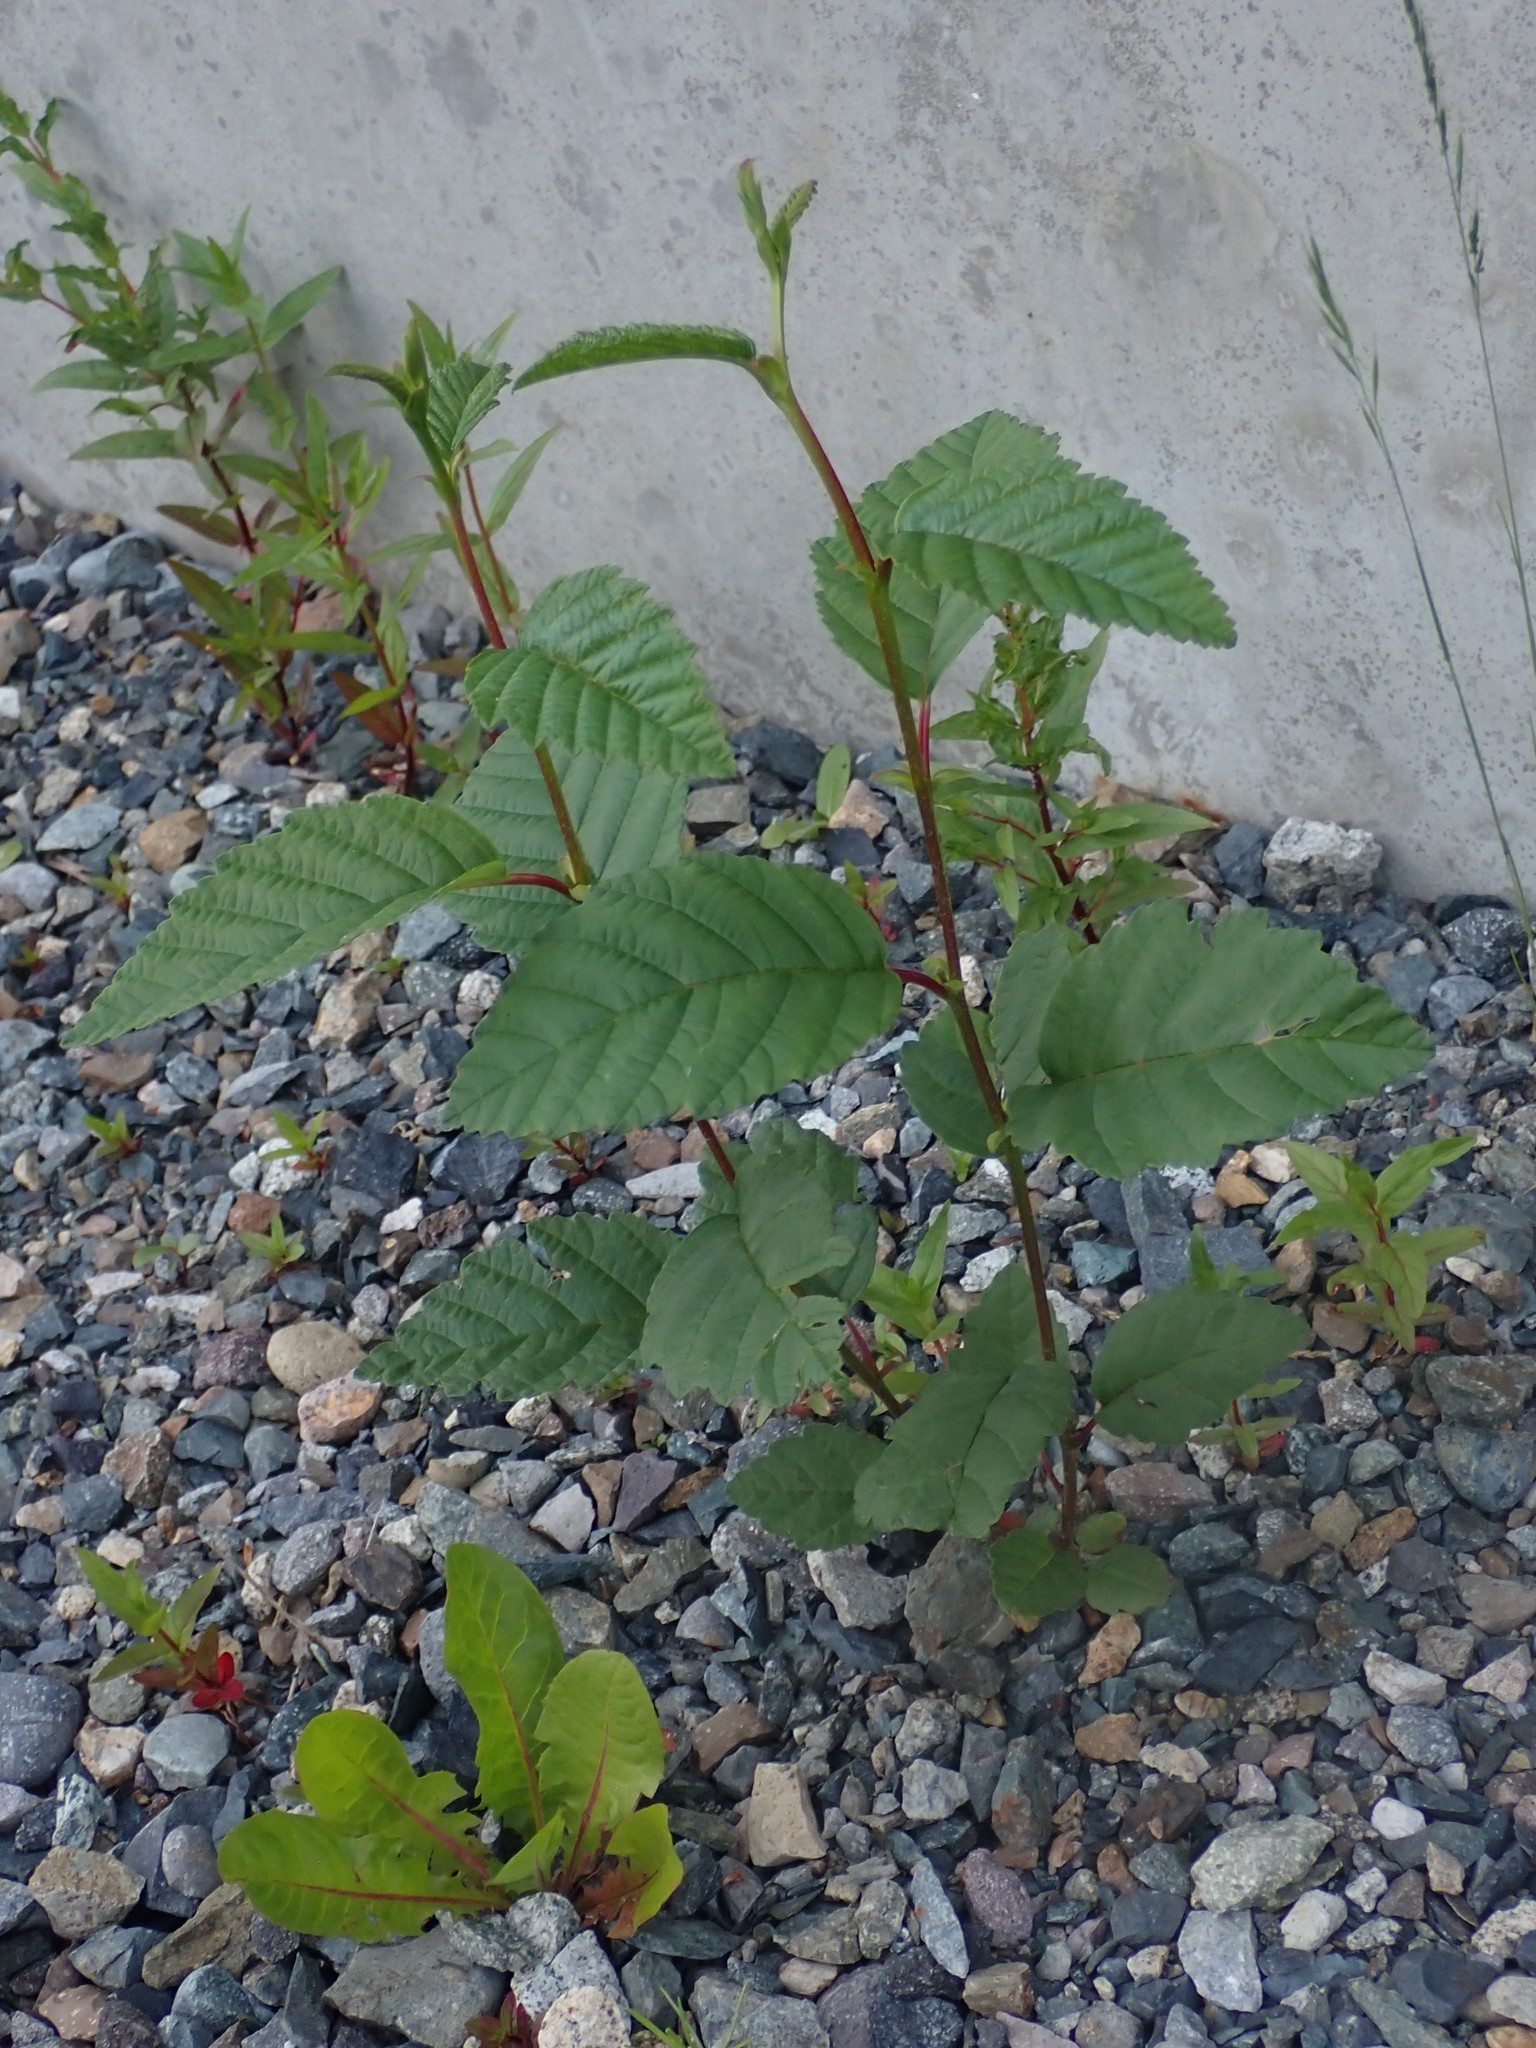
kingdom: Plantae
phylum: Tracheophyta
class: Magnoliopsida
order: Fagales
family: Betulaceae
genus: Alnus
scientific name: Alnus rubra
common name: Red alder
